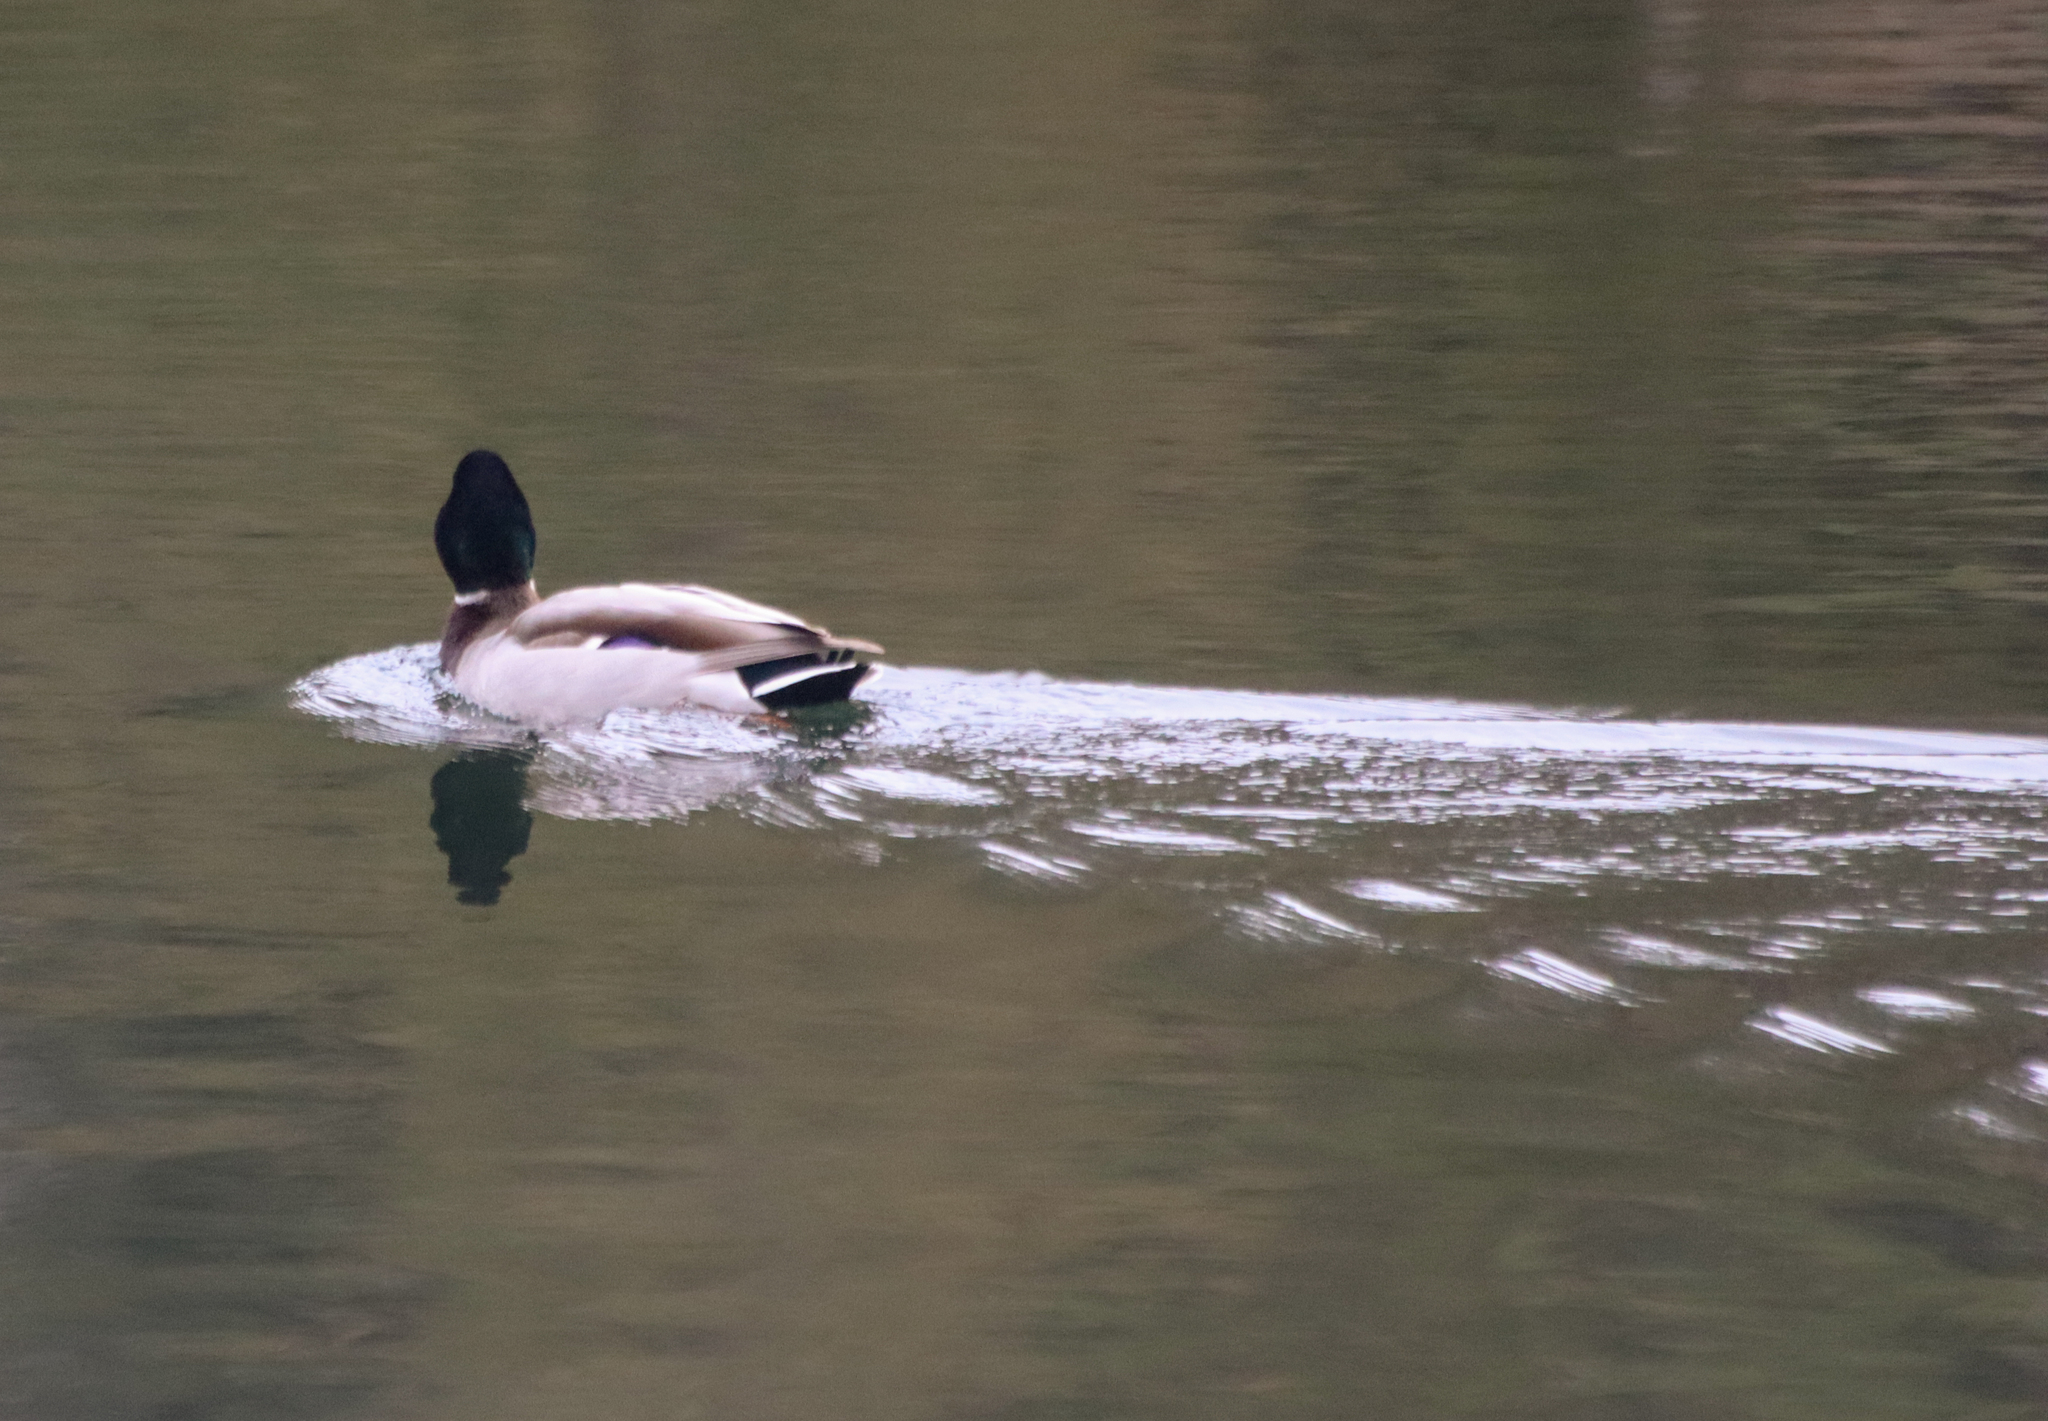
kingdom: Animalia
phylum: Chordata
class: Aves
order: Anseriformes
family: Anatidae
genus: Anas
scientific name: Anas platyrhynchos
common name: Mallard
